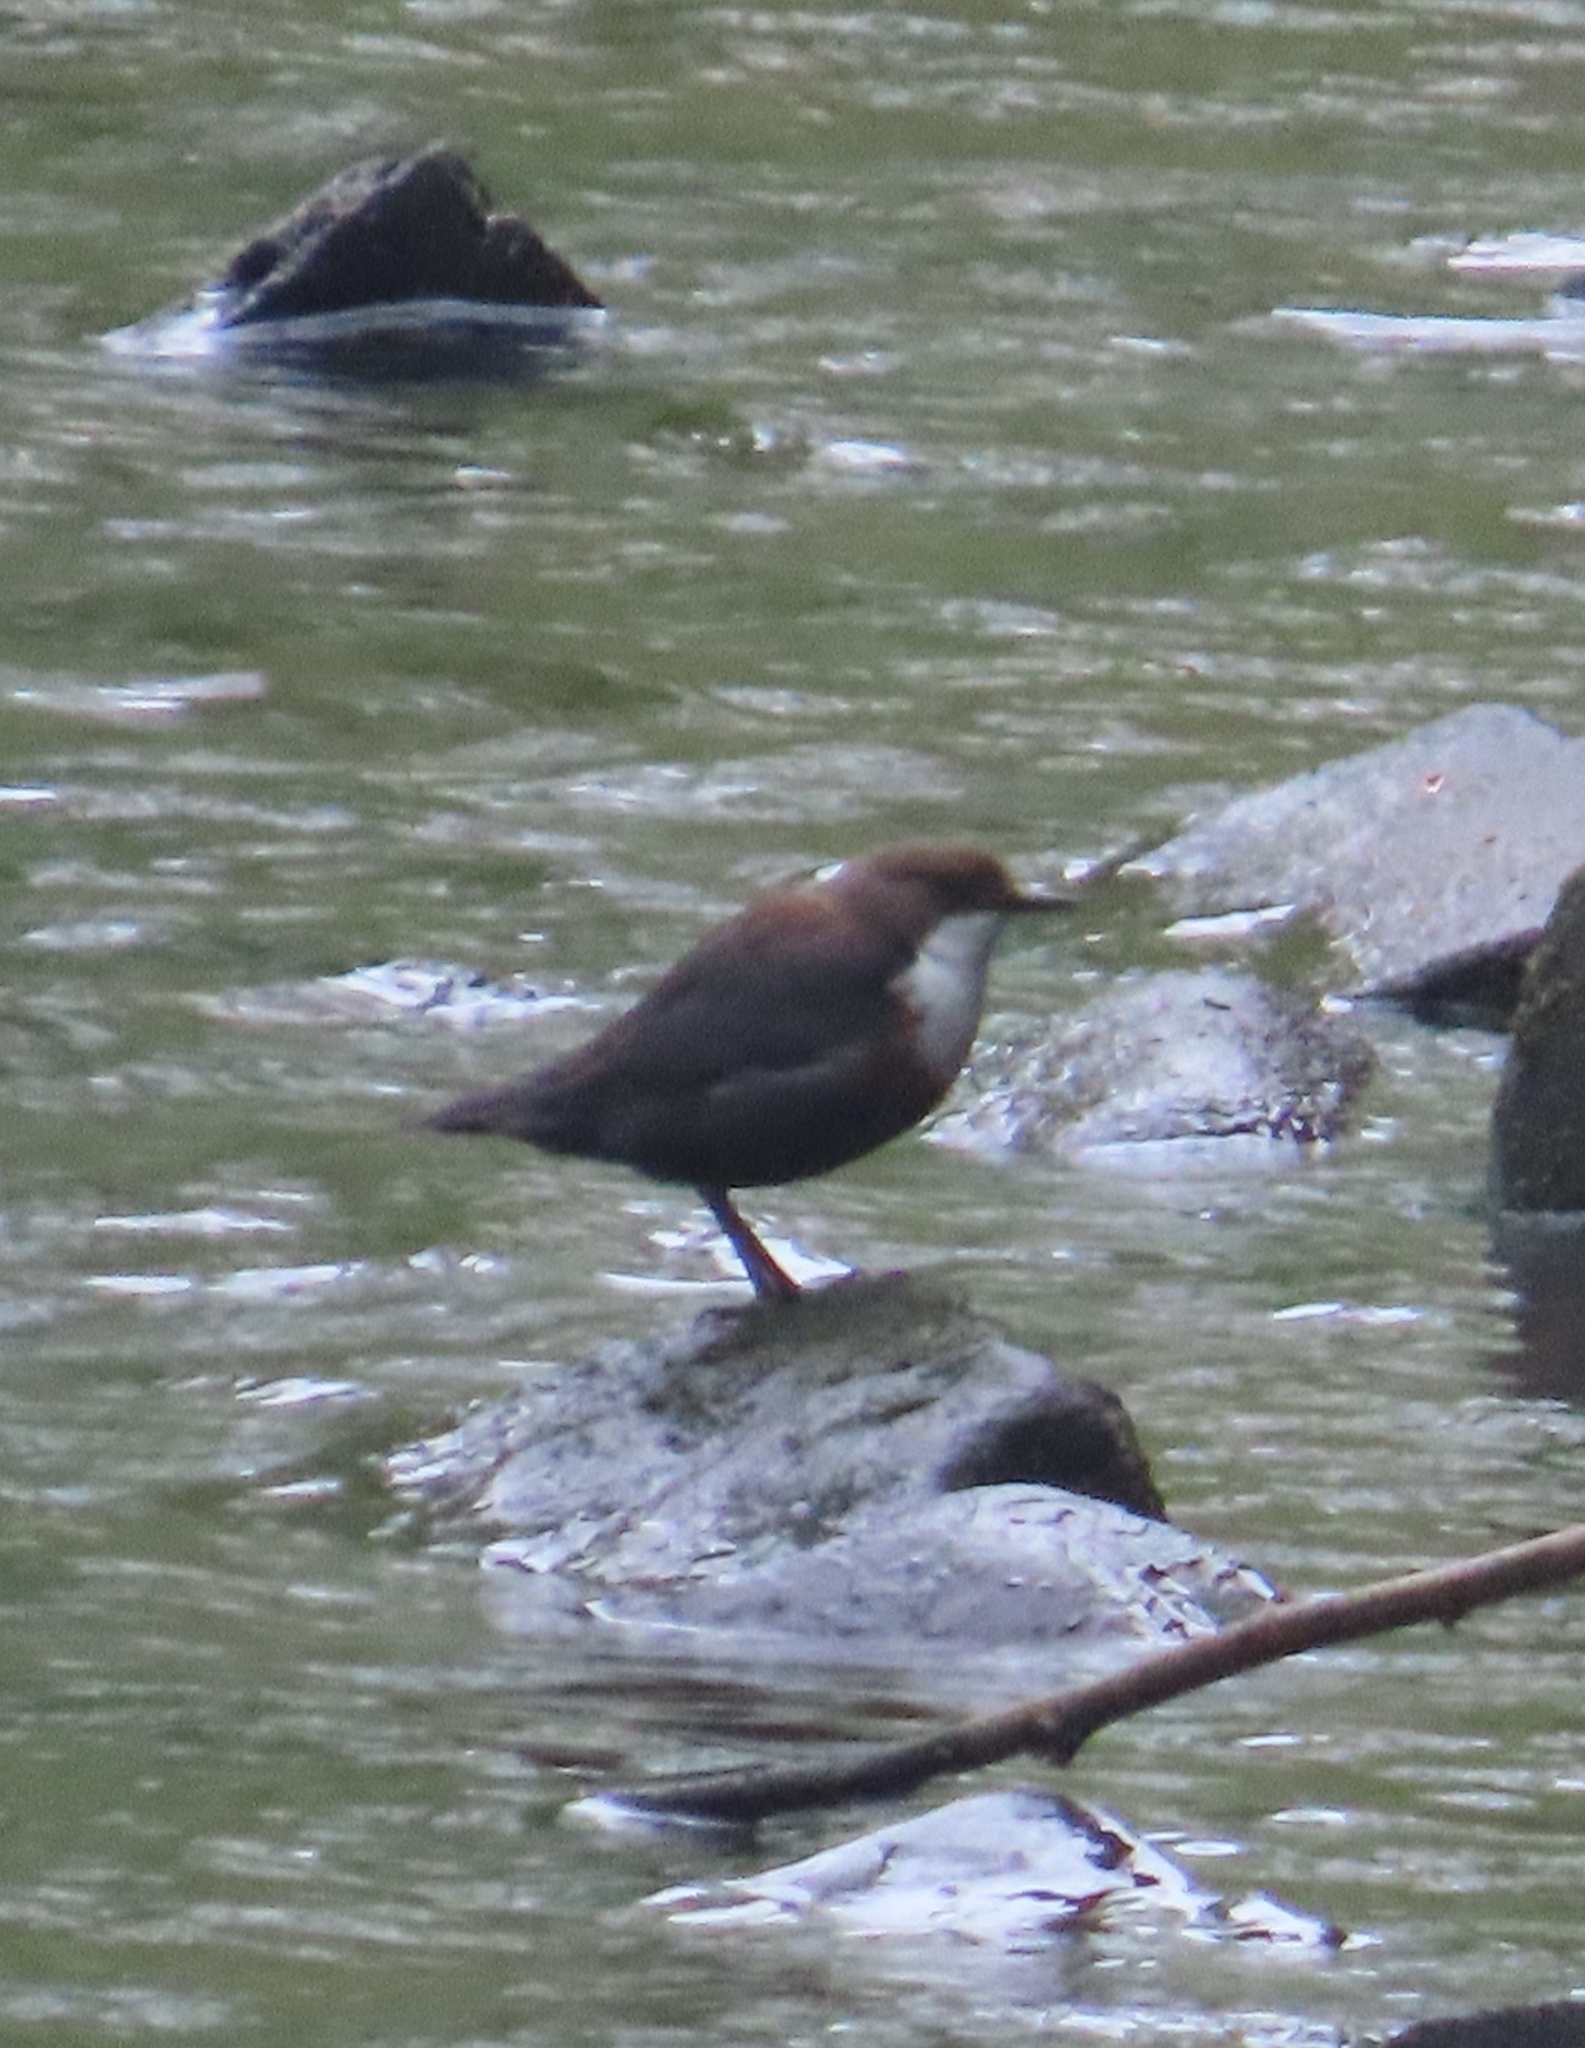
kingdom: Animalia
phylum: Chordata
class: Aves
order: Passeriformes
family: Cinclidae
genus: Cinclus
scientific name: Cinclus cinclus
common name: White-throated dipper
